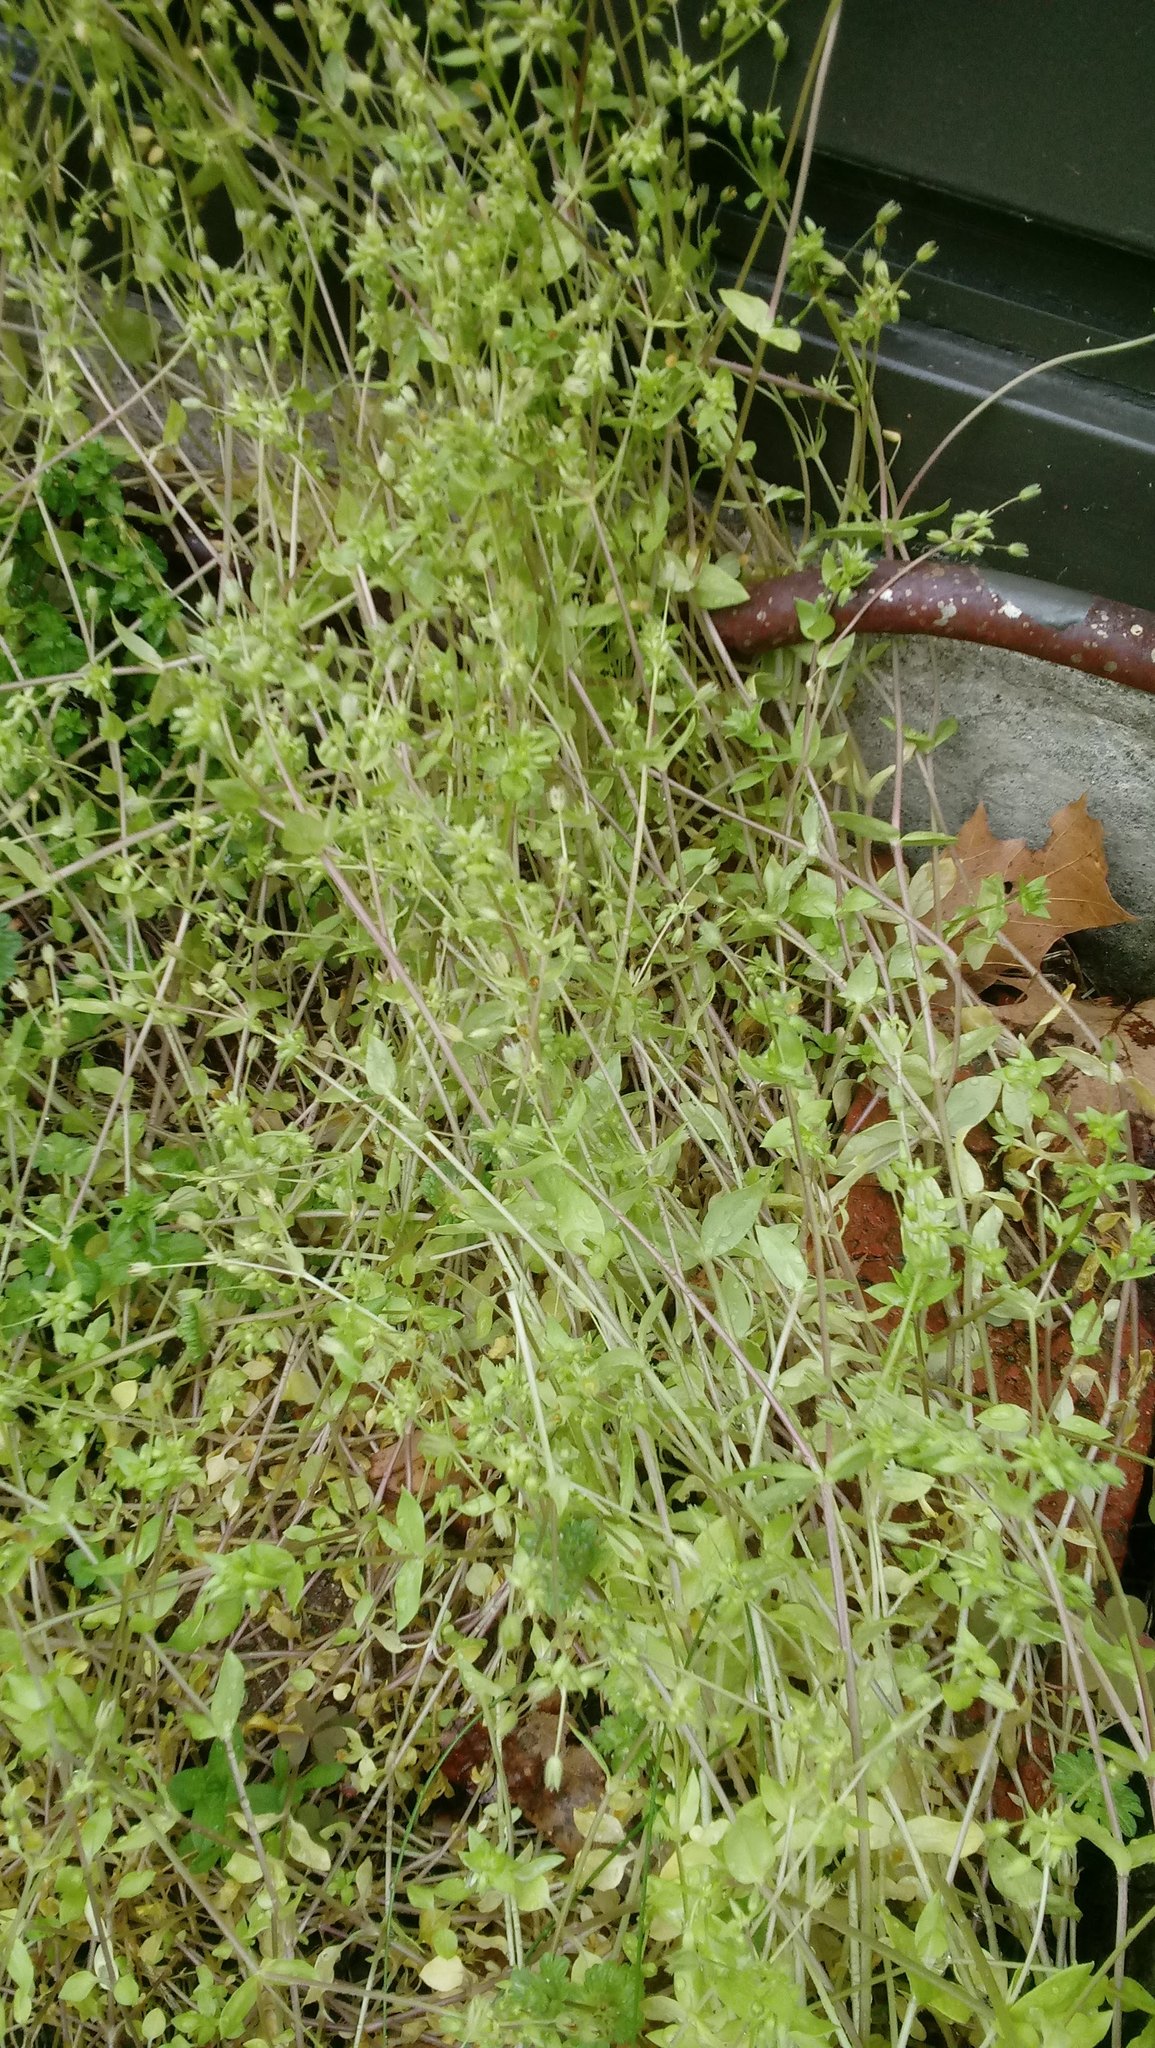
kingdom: Plantae
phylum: Tracheophyta
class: Magnoliopsida
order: Caryophyllales
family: Caryophyllaceae
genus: Stellaria
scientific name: Stellaria media
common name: Common chickweed
